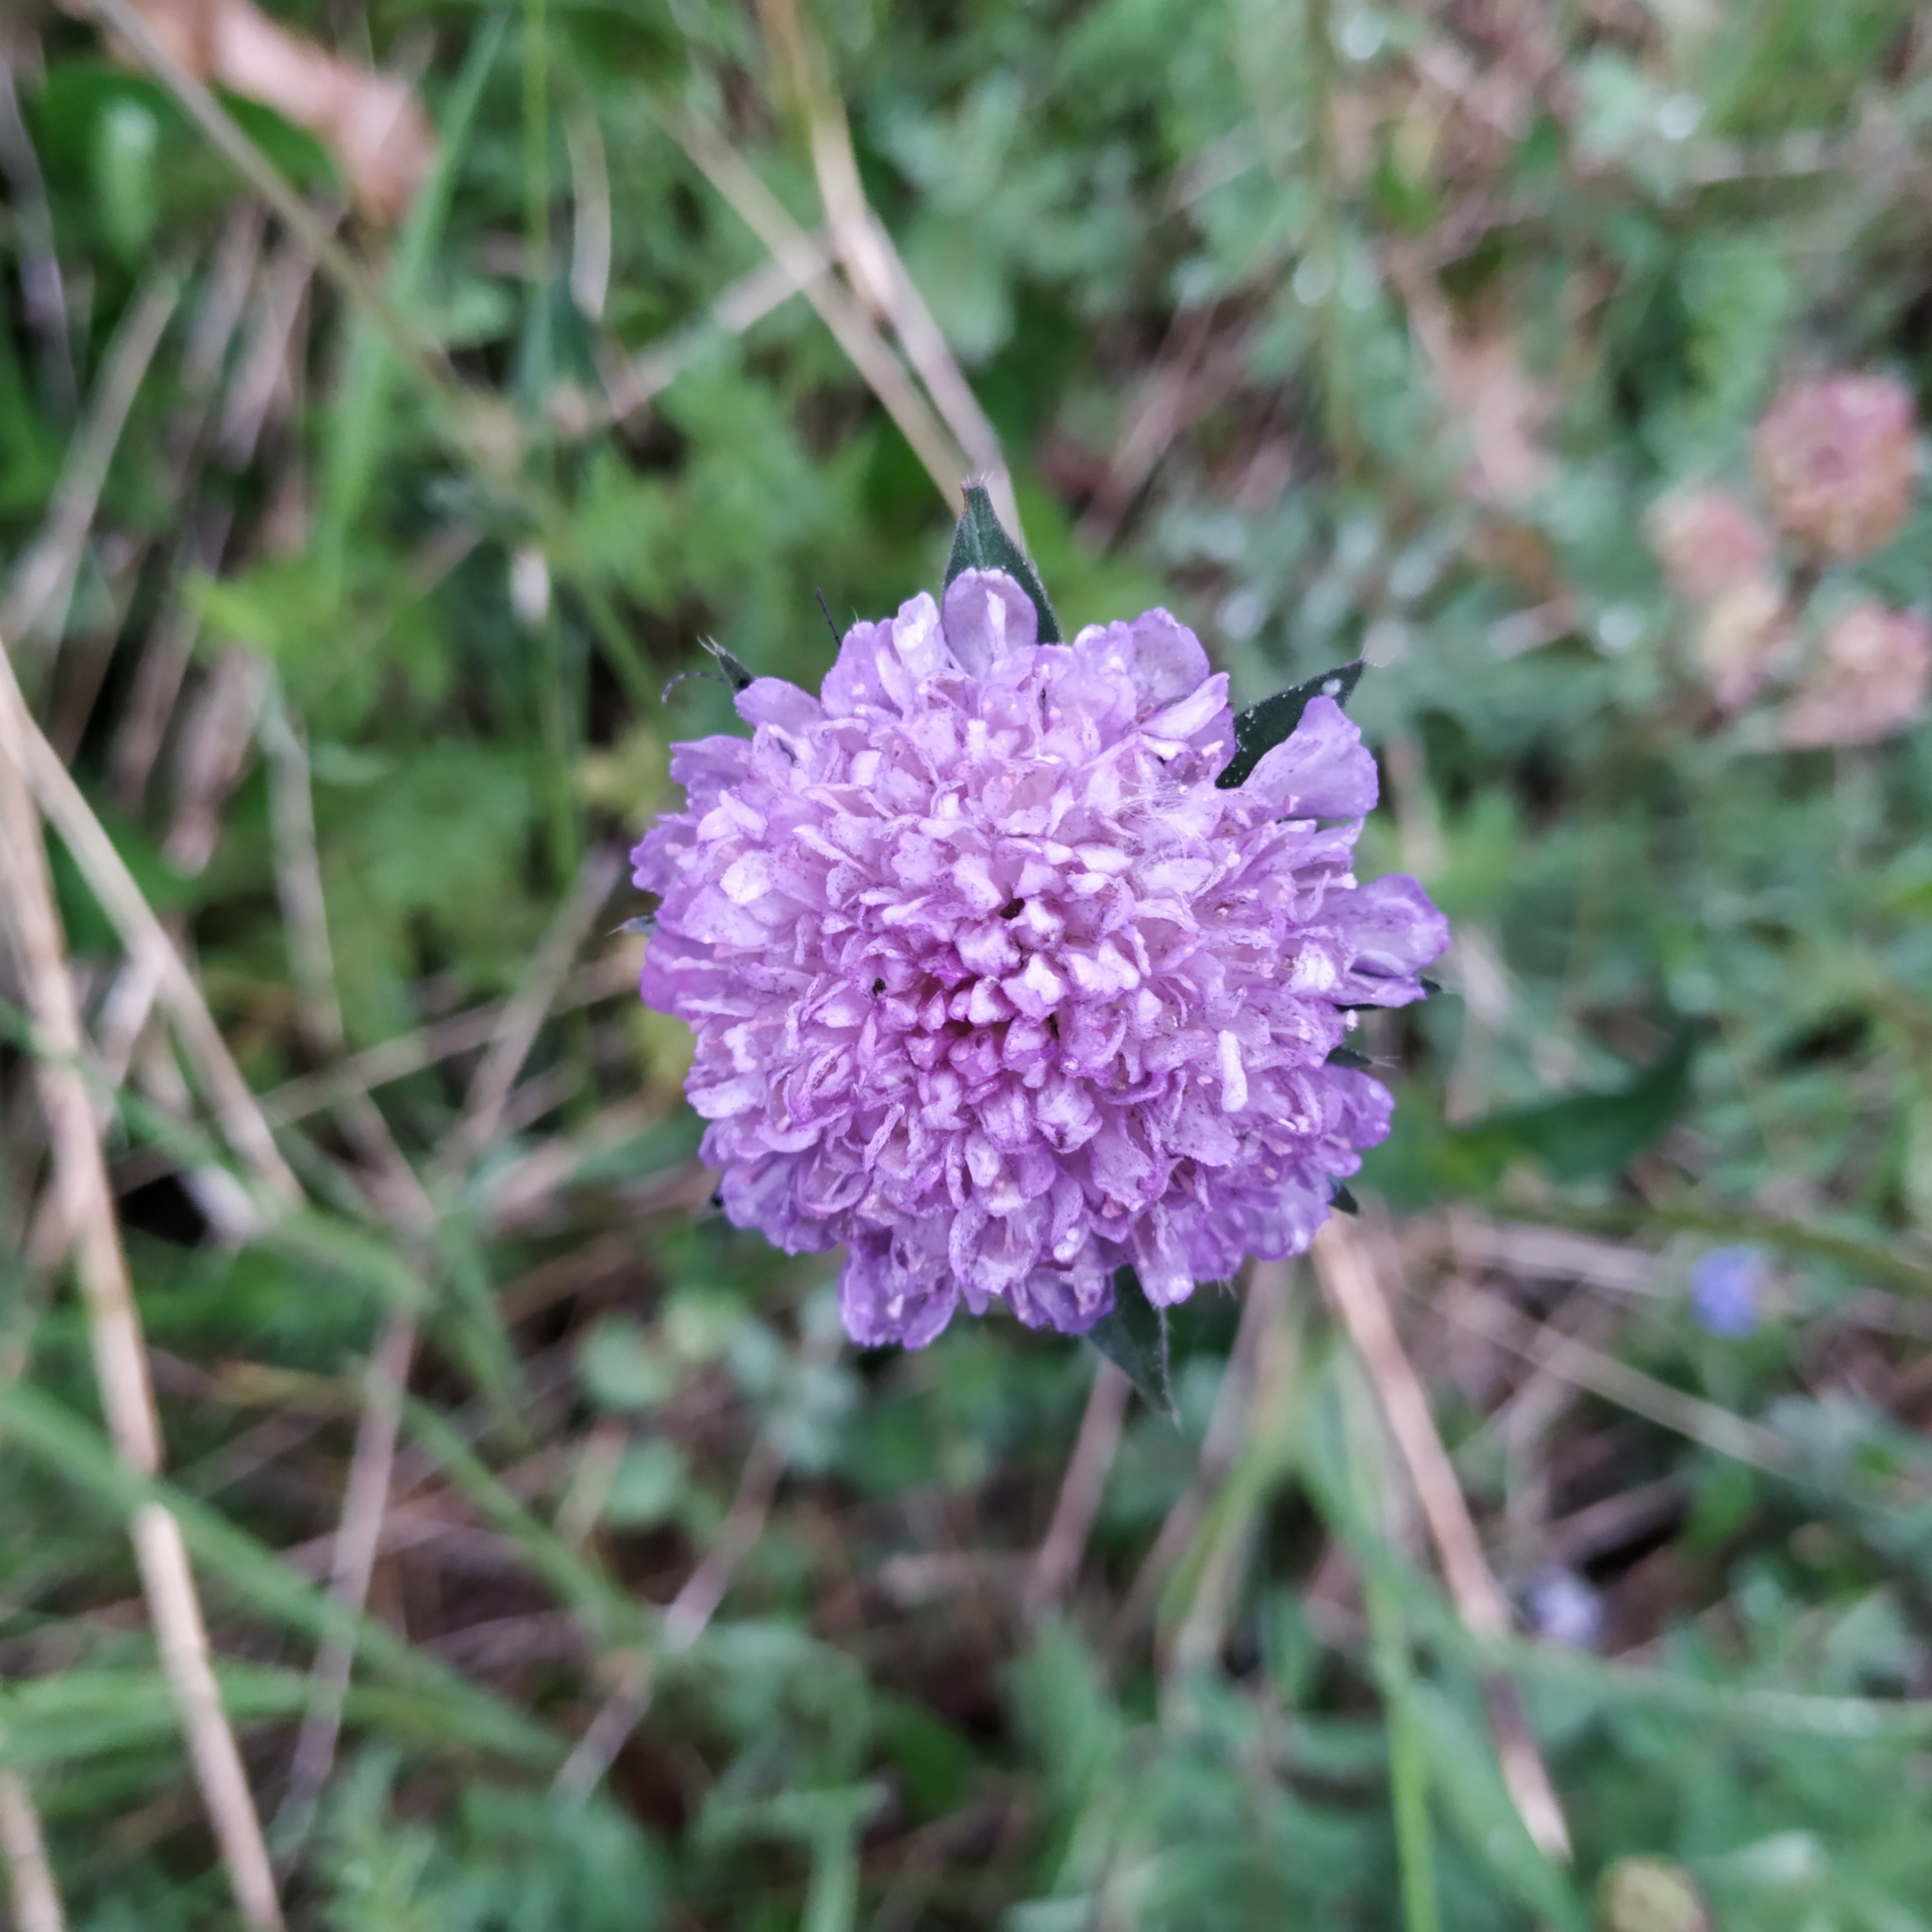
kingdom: Plantae
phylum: Tracheophyta
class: Magnoliopsida
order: Dipsacales
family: Caprifoliaceae
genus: Knautia
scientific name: Knautia arvensis
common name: Field scabiosa
